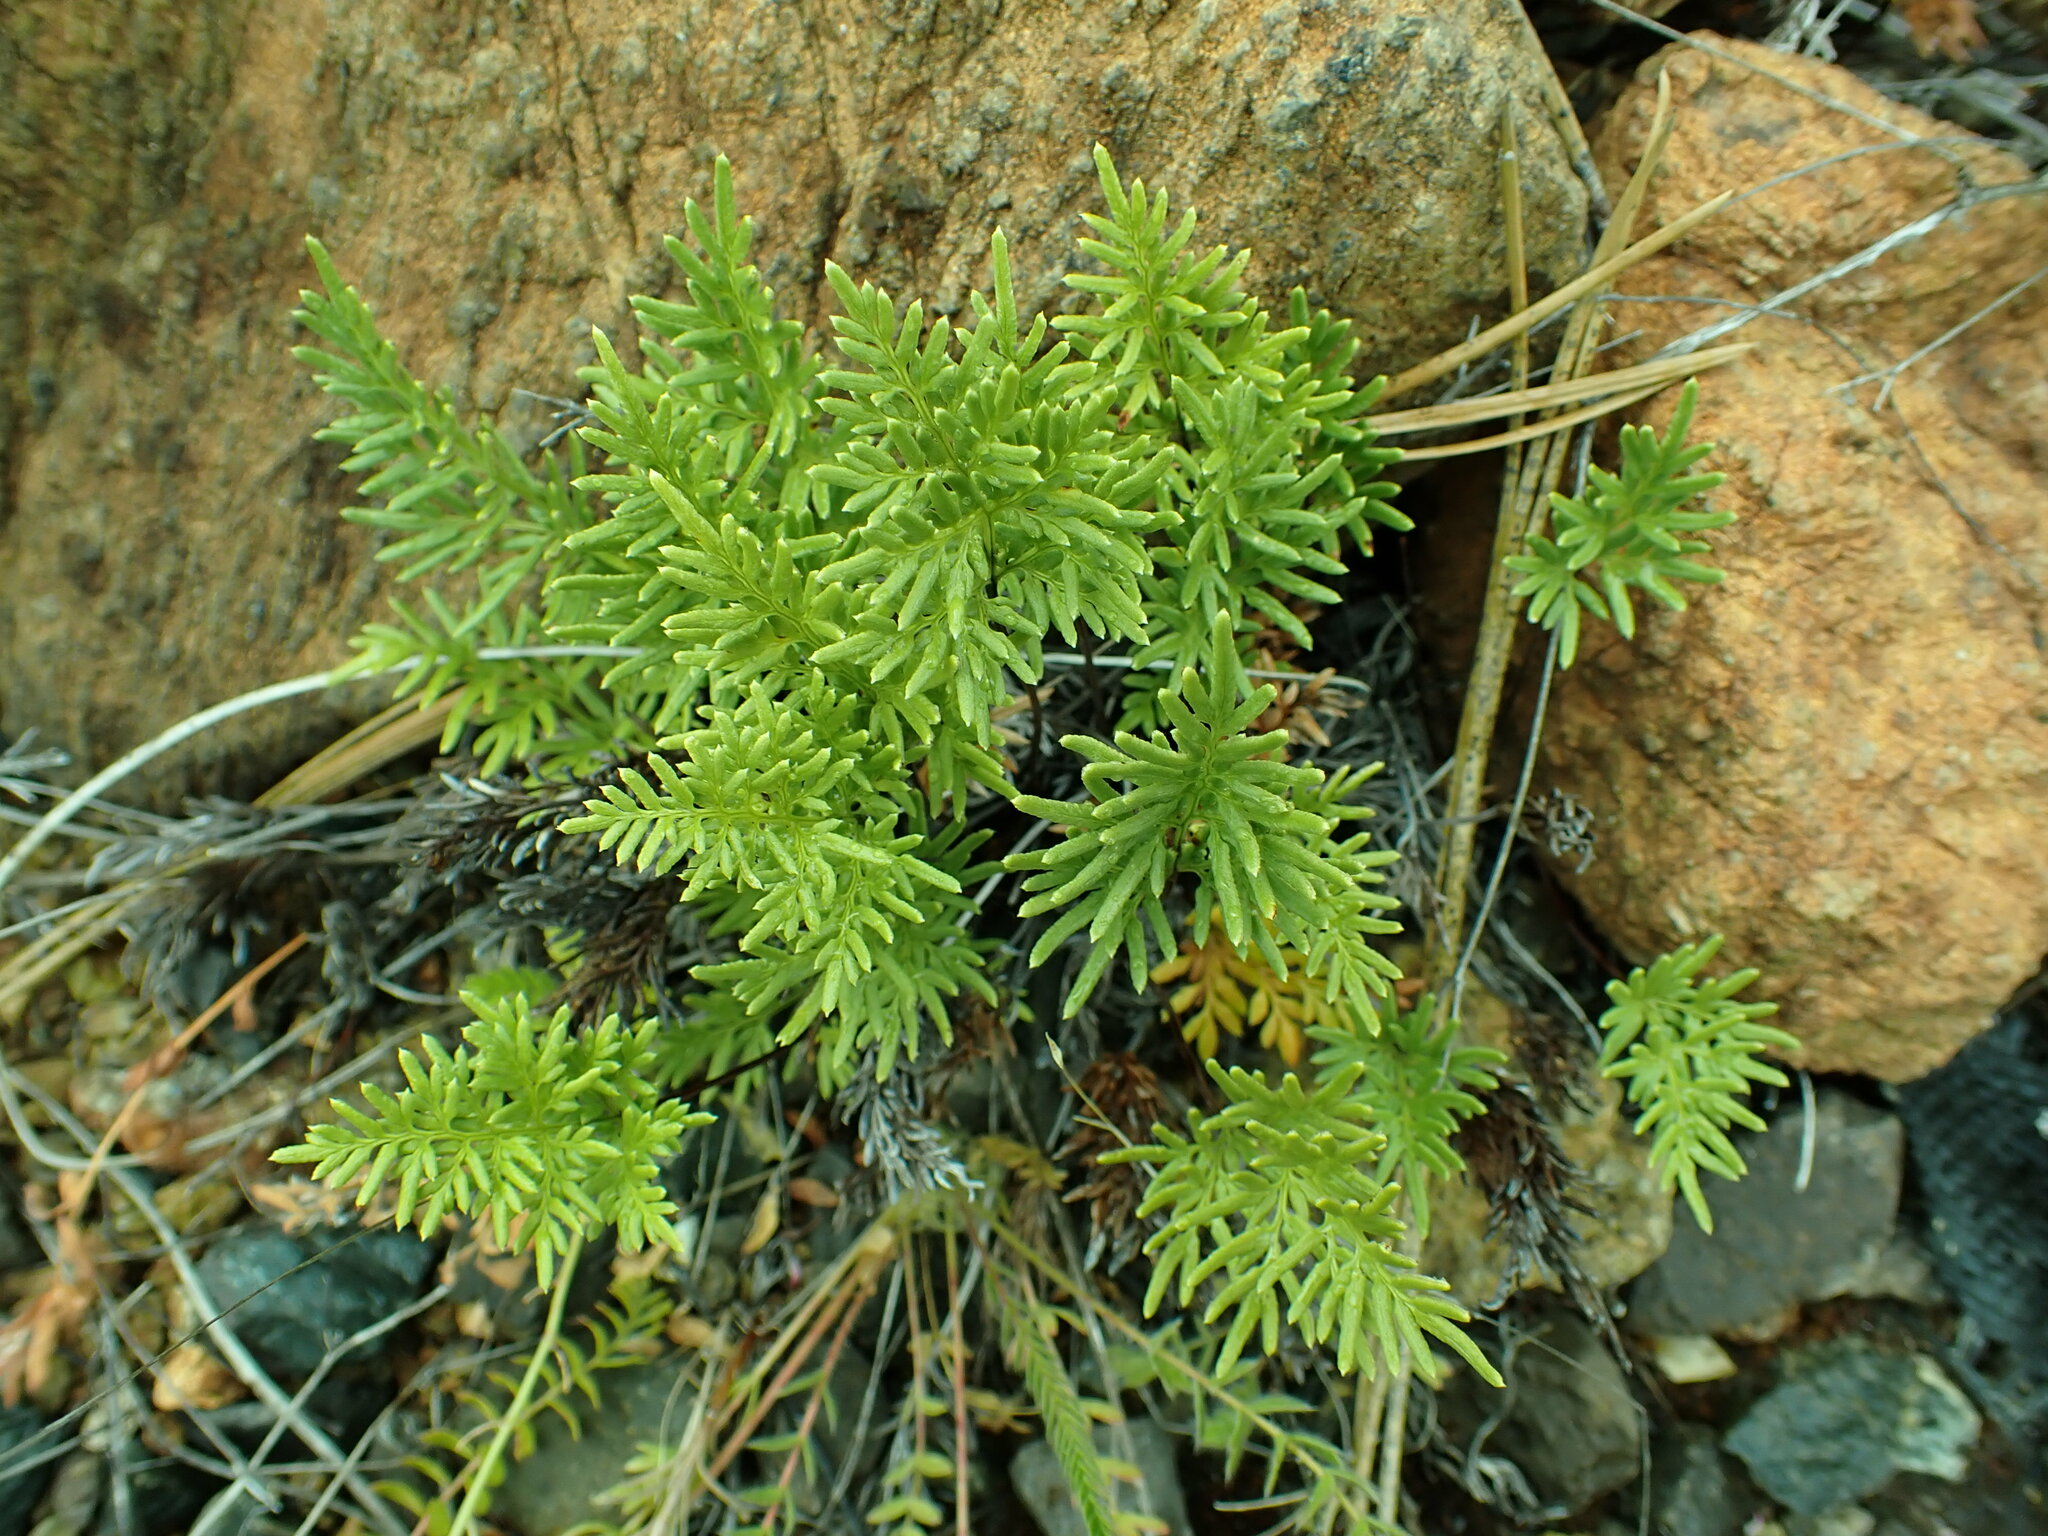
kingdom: Plantae
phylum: Tracheophyta
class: Polypodiopsida
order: Polypodiales
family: Pteridaceae
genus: Aspidotis
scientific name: Aspidotis densa
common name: Indian's dream
